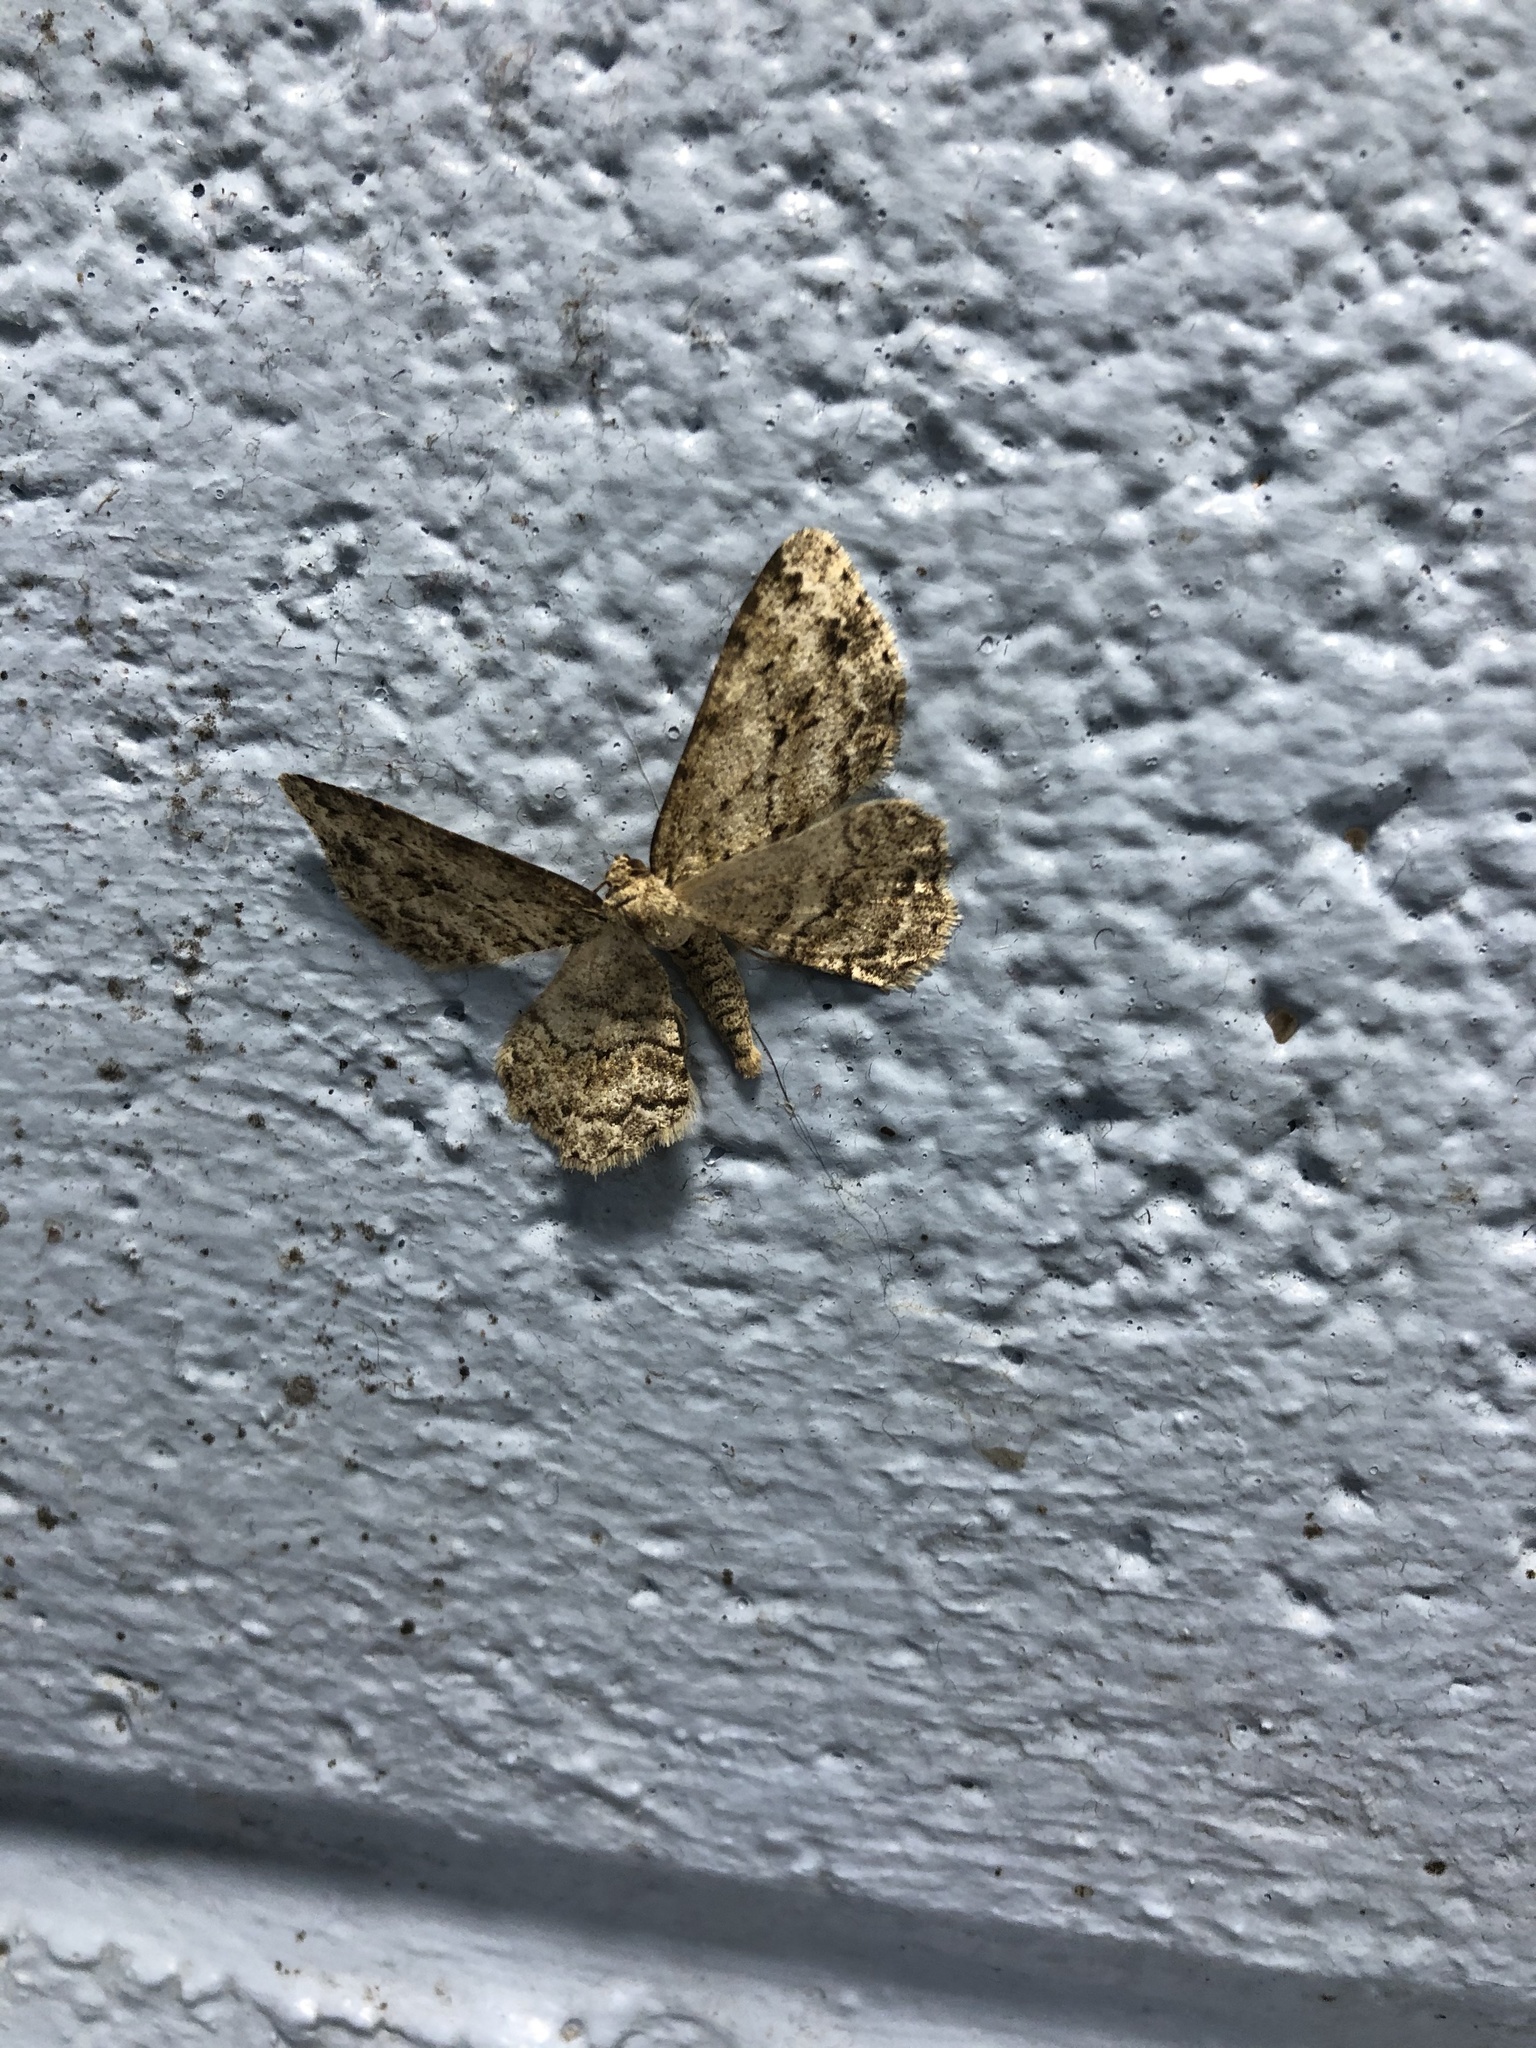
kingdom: Animalia
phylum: Arthropoda
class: Insecta
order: Lepidoptera
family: Geometridae
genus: Ectropis
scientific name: Ectropis crepuscularia
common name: Engrailed
